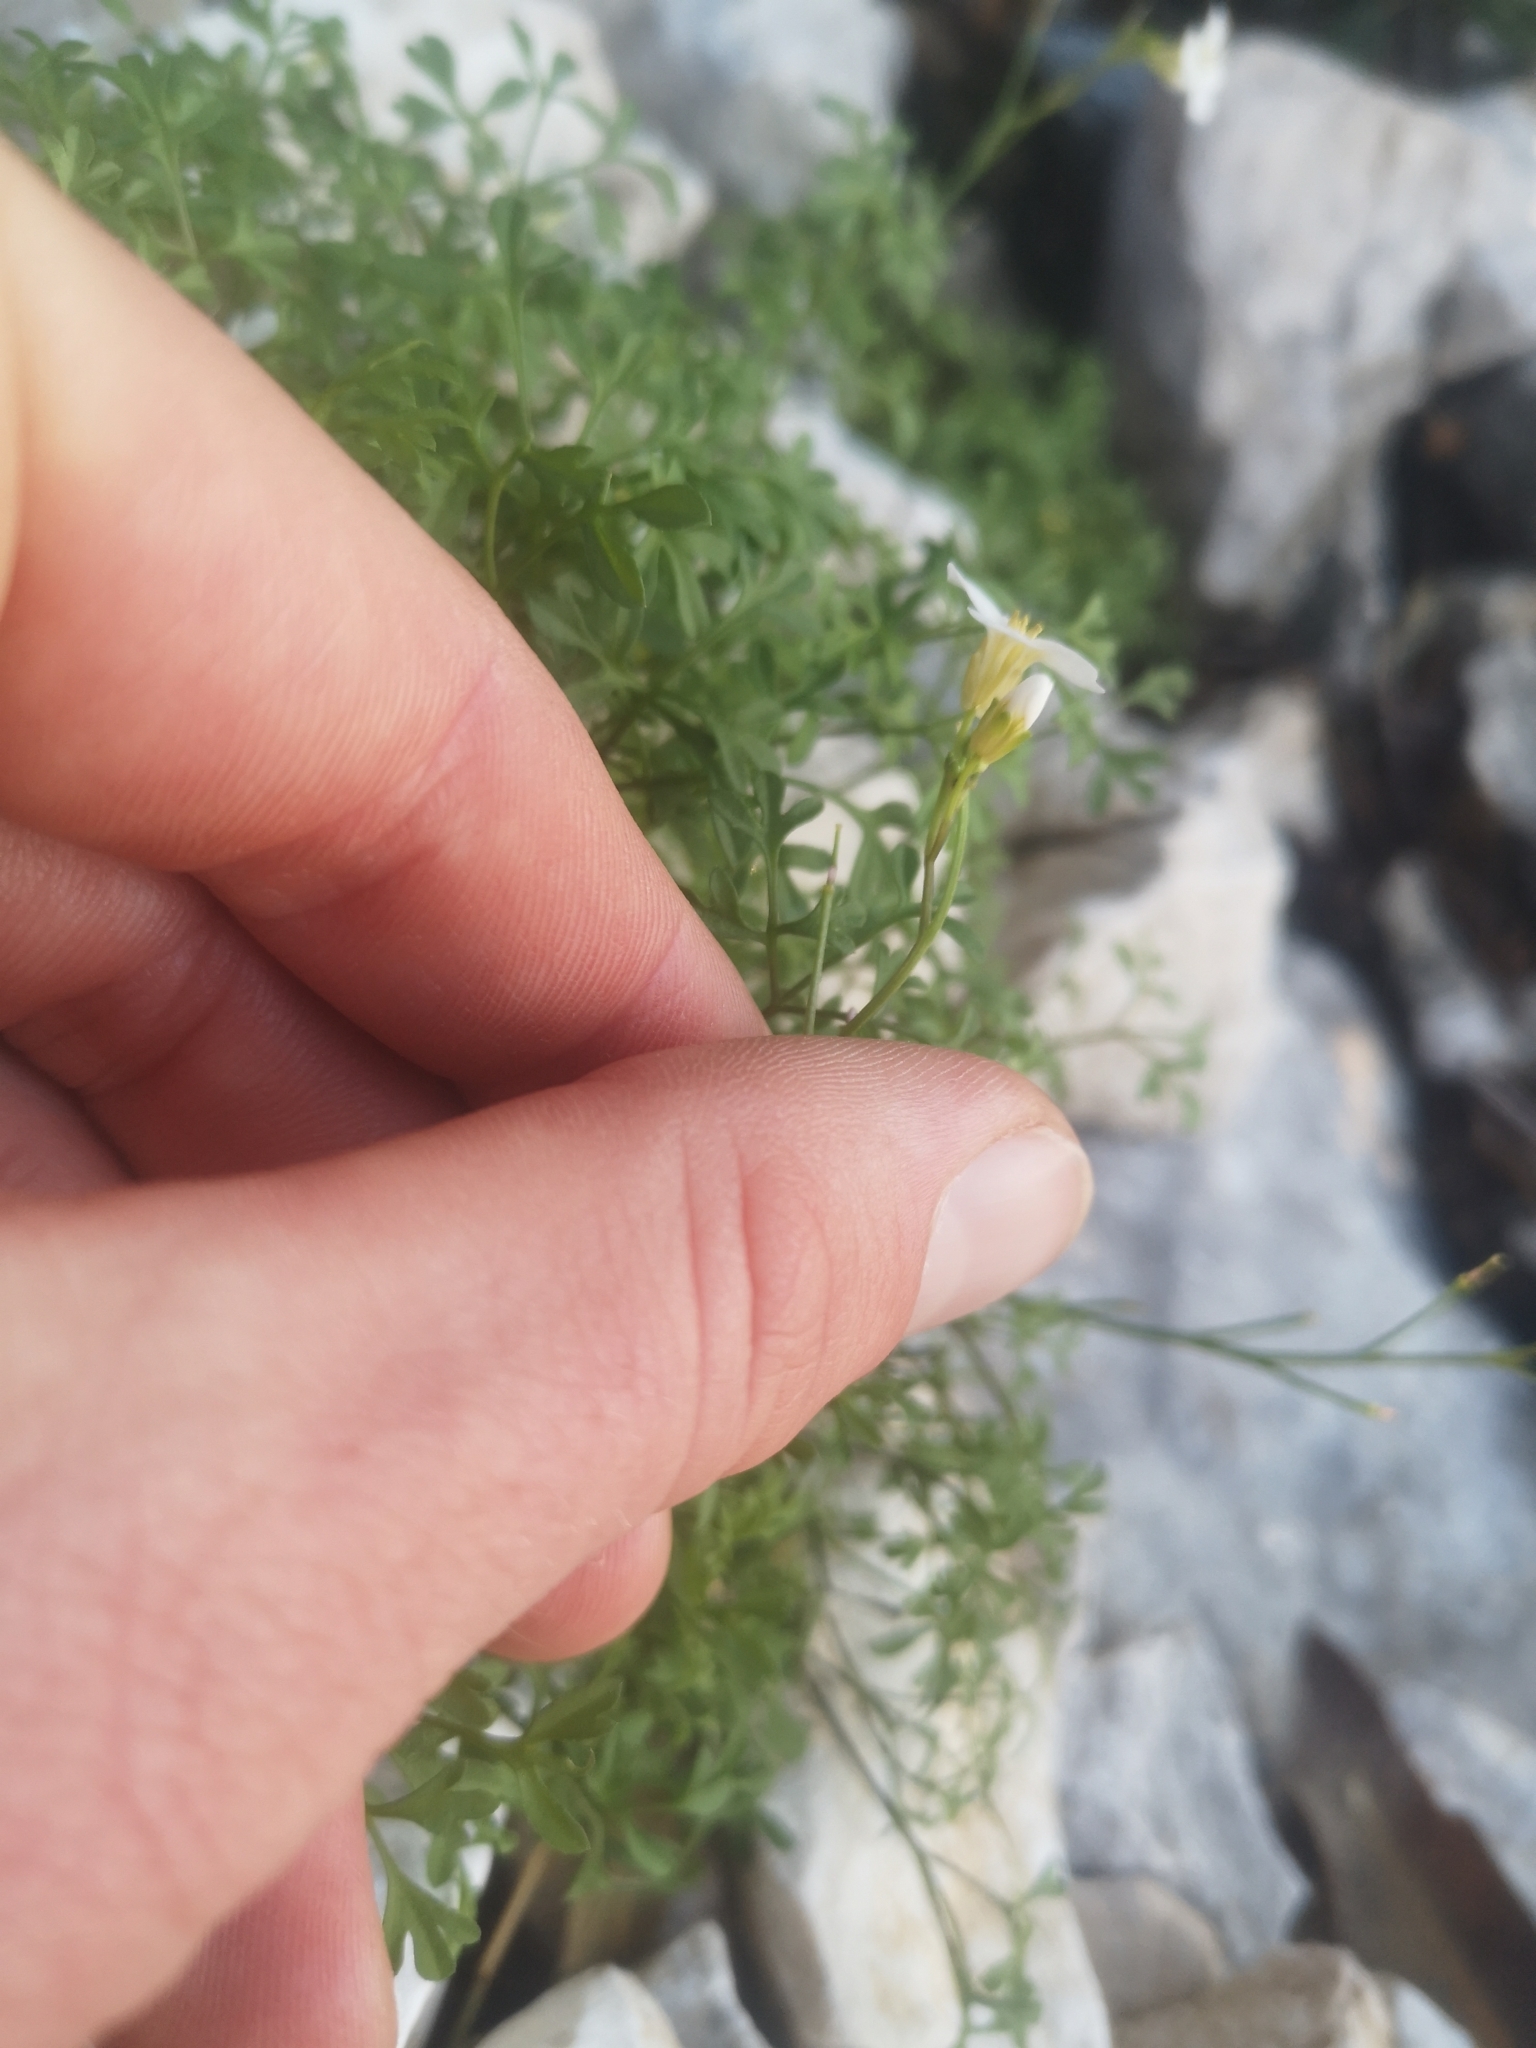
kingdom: Plantae
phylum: Tracheophyta
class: Magnoliopsida
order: Brassicales
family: Brassicaceae
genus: Cardamine
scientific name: Cardamine maritima
